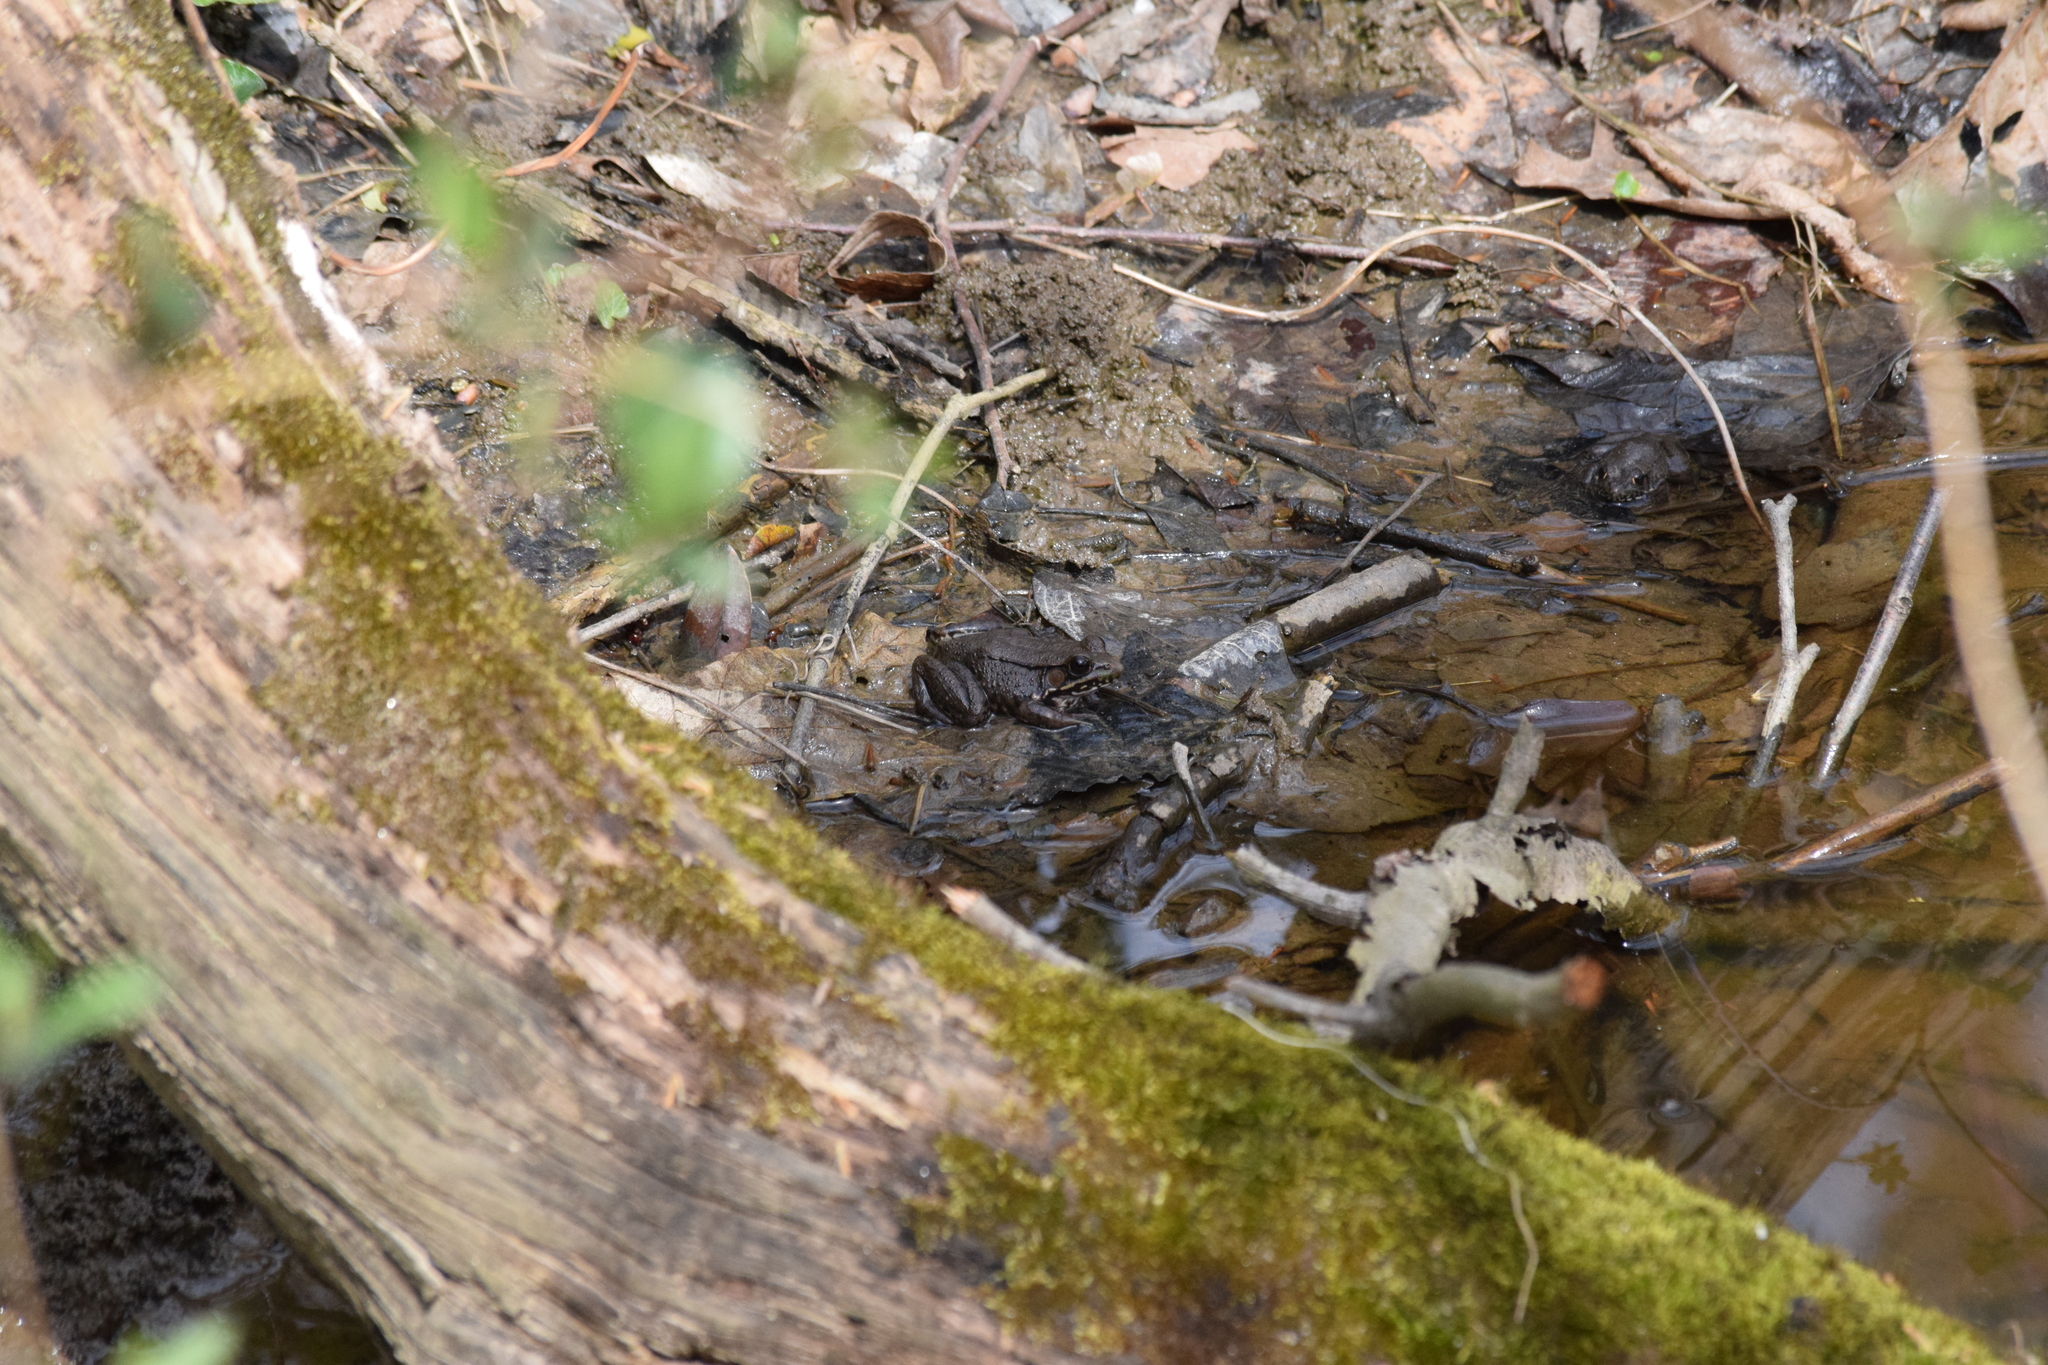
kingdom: Animalia
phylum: Chordata
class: Amphibia
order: Anura
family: Ranidae
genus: Lithobates
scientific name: Lithobates clamitans
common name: Green frog
